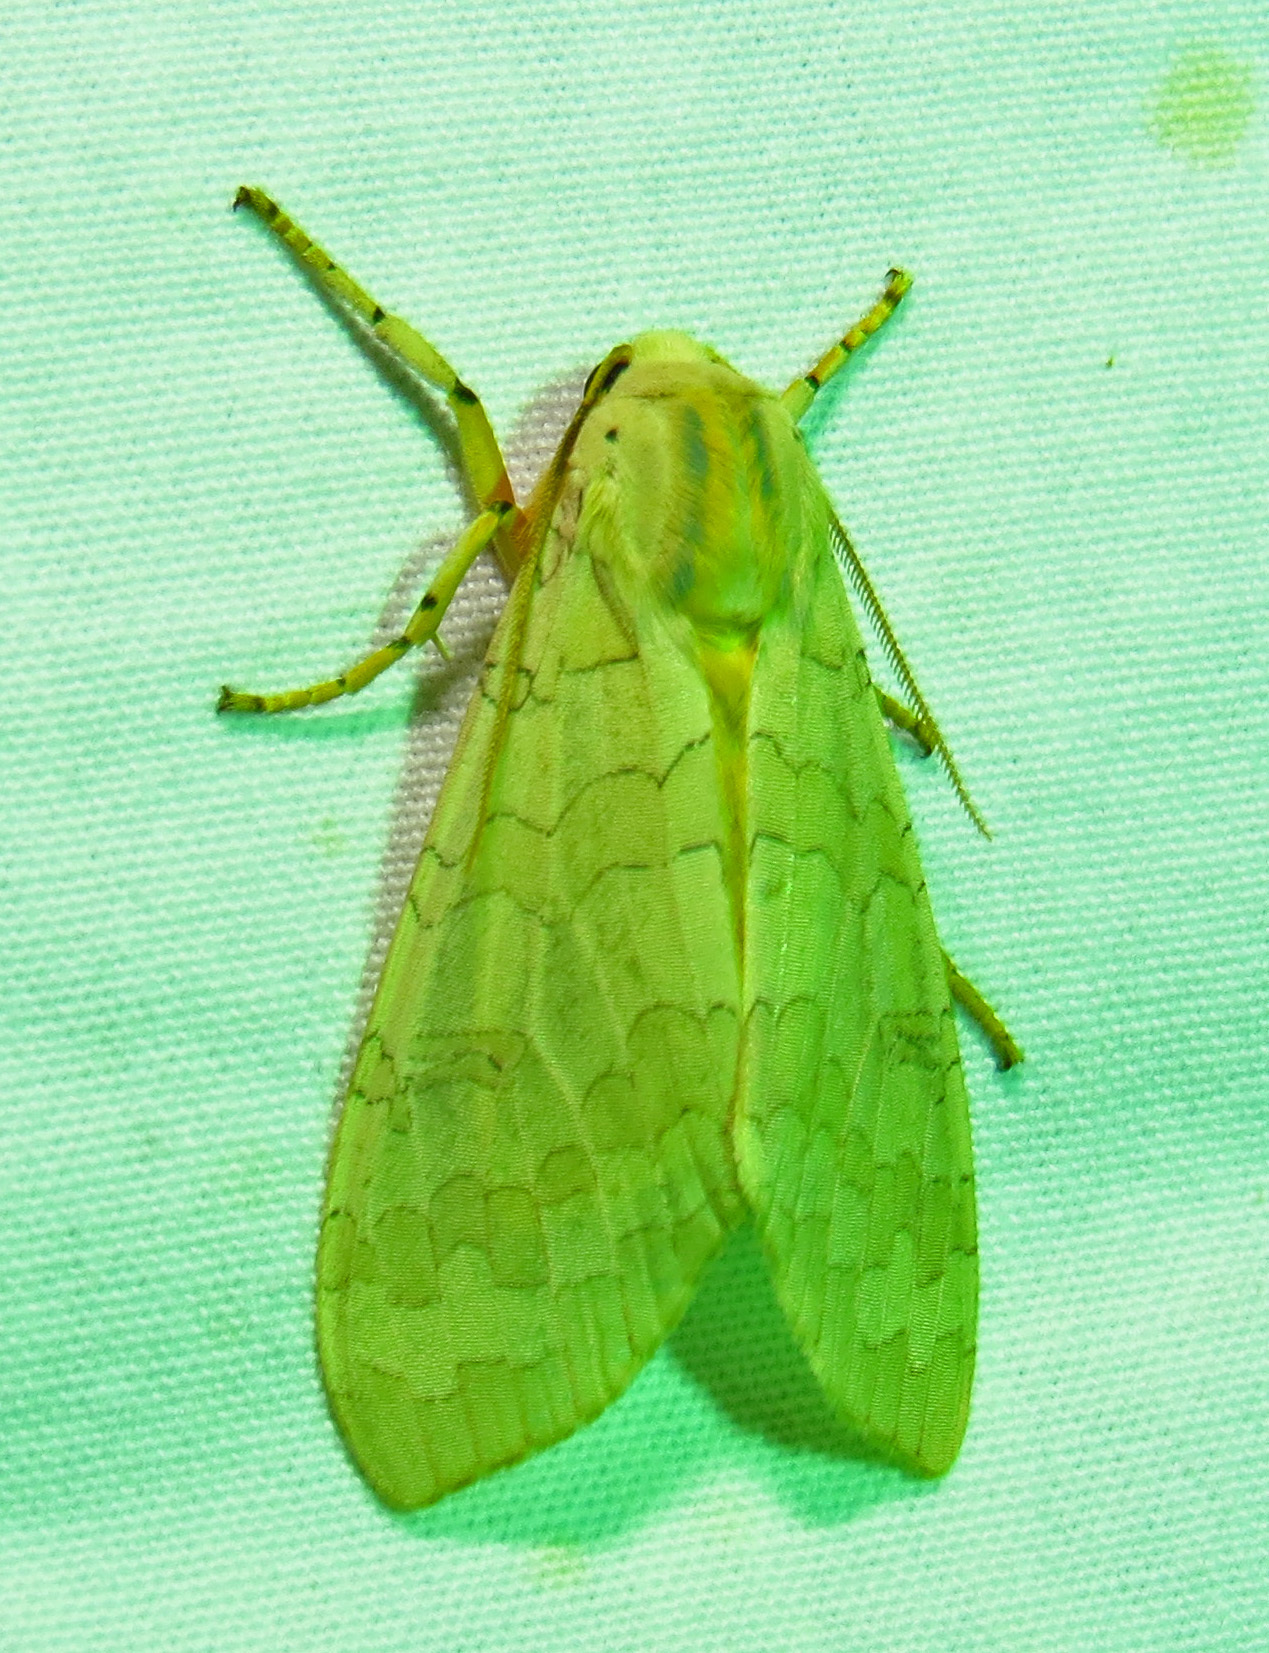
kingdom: Animalia
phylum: Arthropoda
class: Insecta
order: Lepidoptera
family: Erebidae
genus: Halysidota
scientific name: Halysidota
